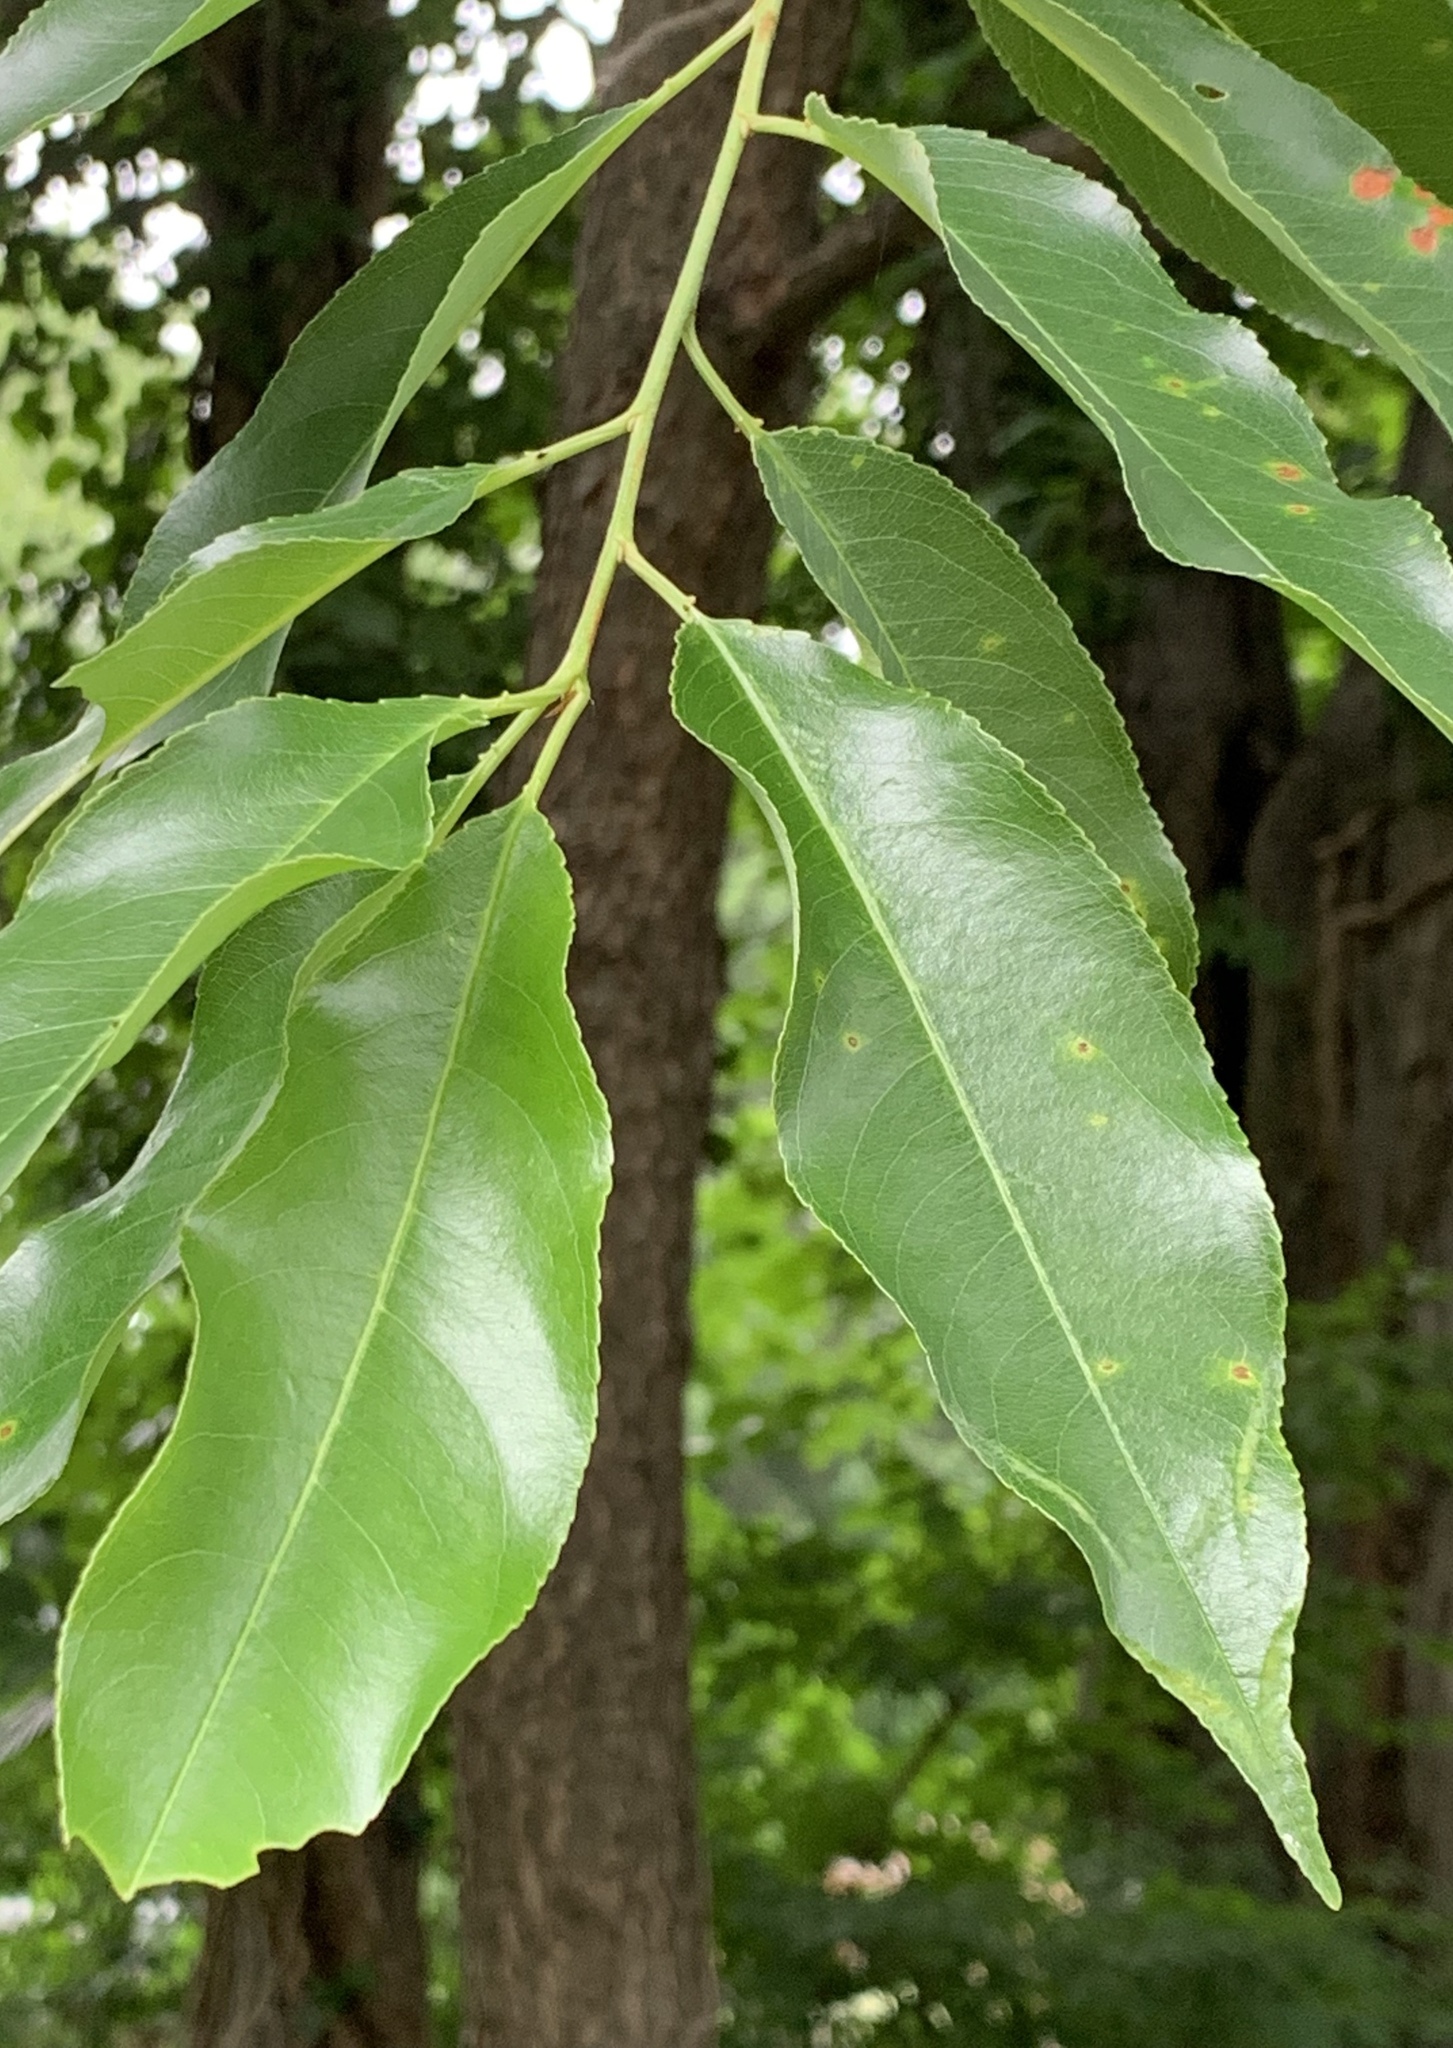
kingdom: Plantae
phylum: Tracheophyta
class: Magnoliopsida
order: Rosales
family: Rosaceae
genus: Prunus
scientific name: Prunus serotina
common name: Black cherry
